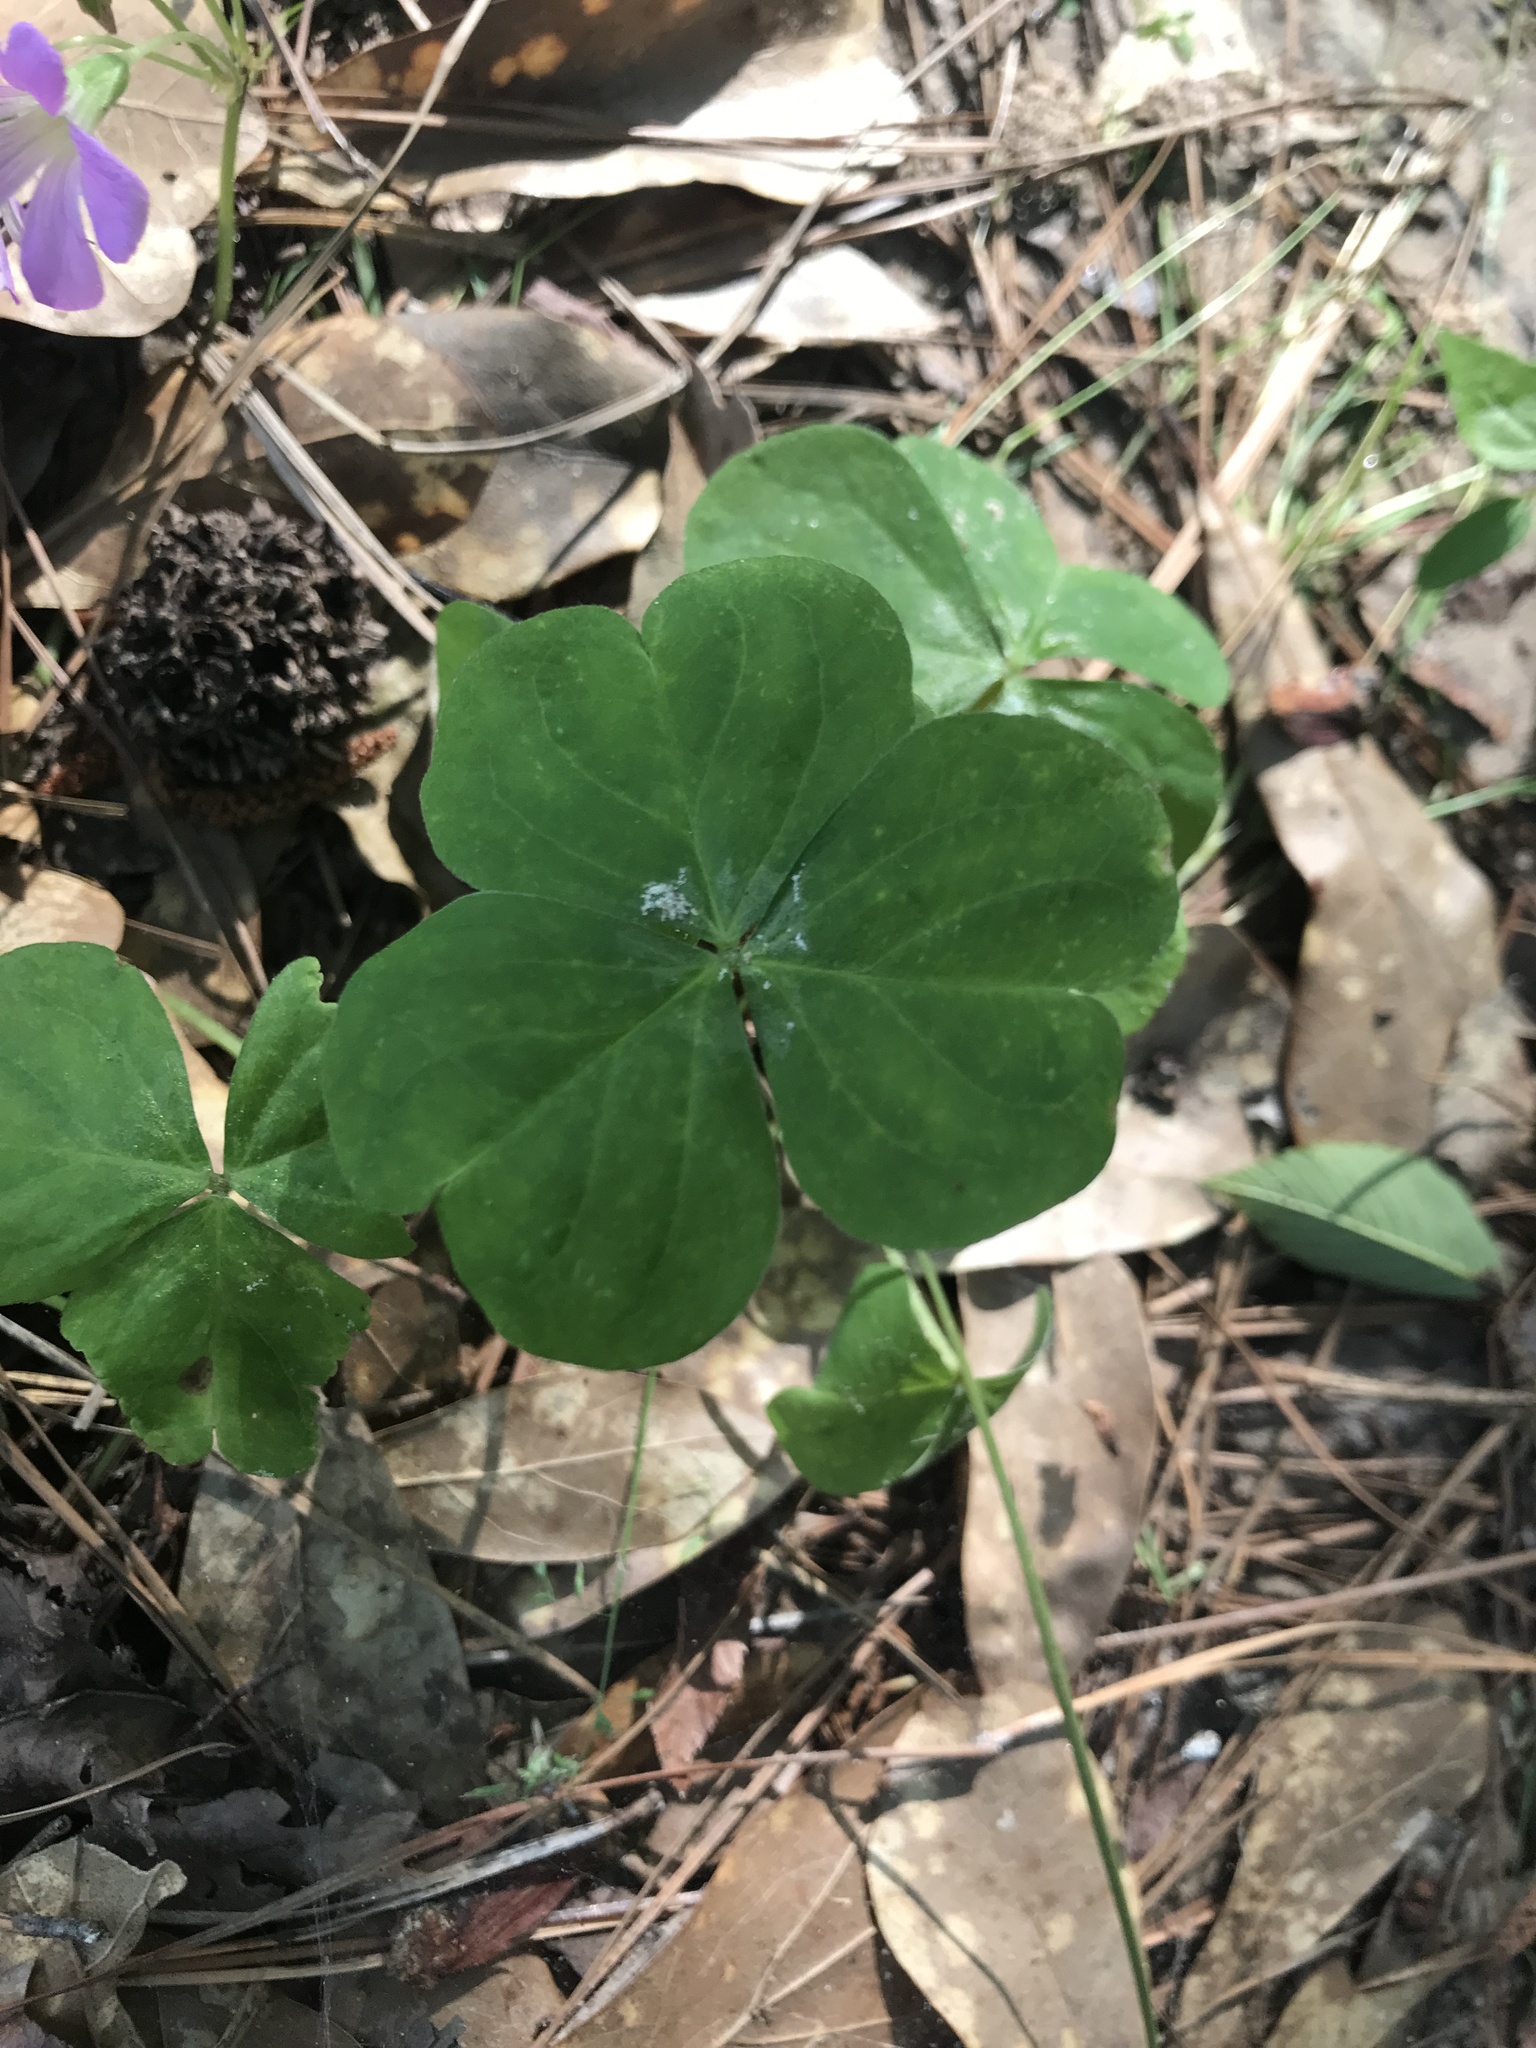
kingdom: Plantae
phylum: Tracheophyta
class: Magnoliopsida
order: Oxalidales
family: Oxalidaceae
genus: Oxalis
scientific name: Oxalis debilis
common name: Large-flowered pink-sorrel
